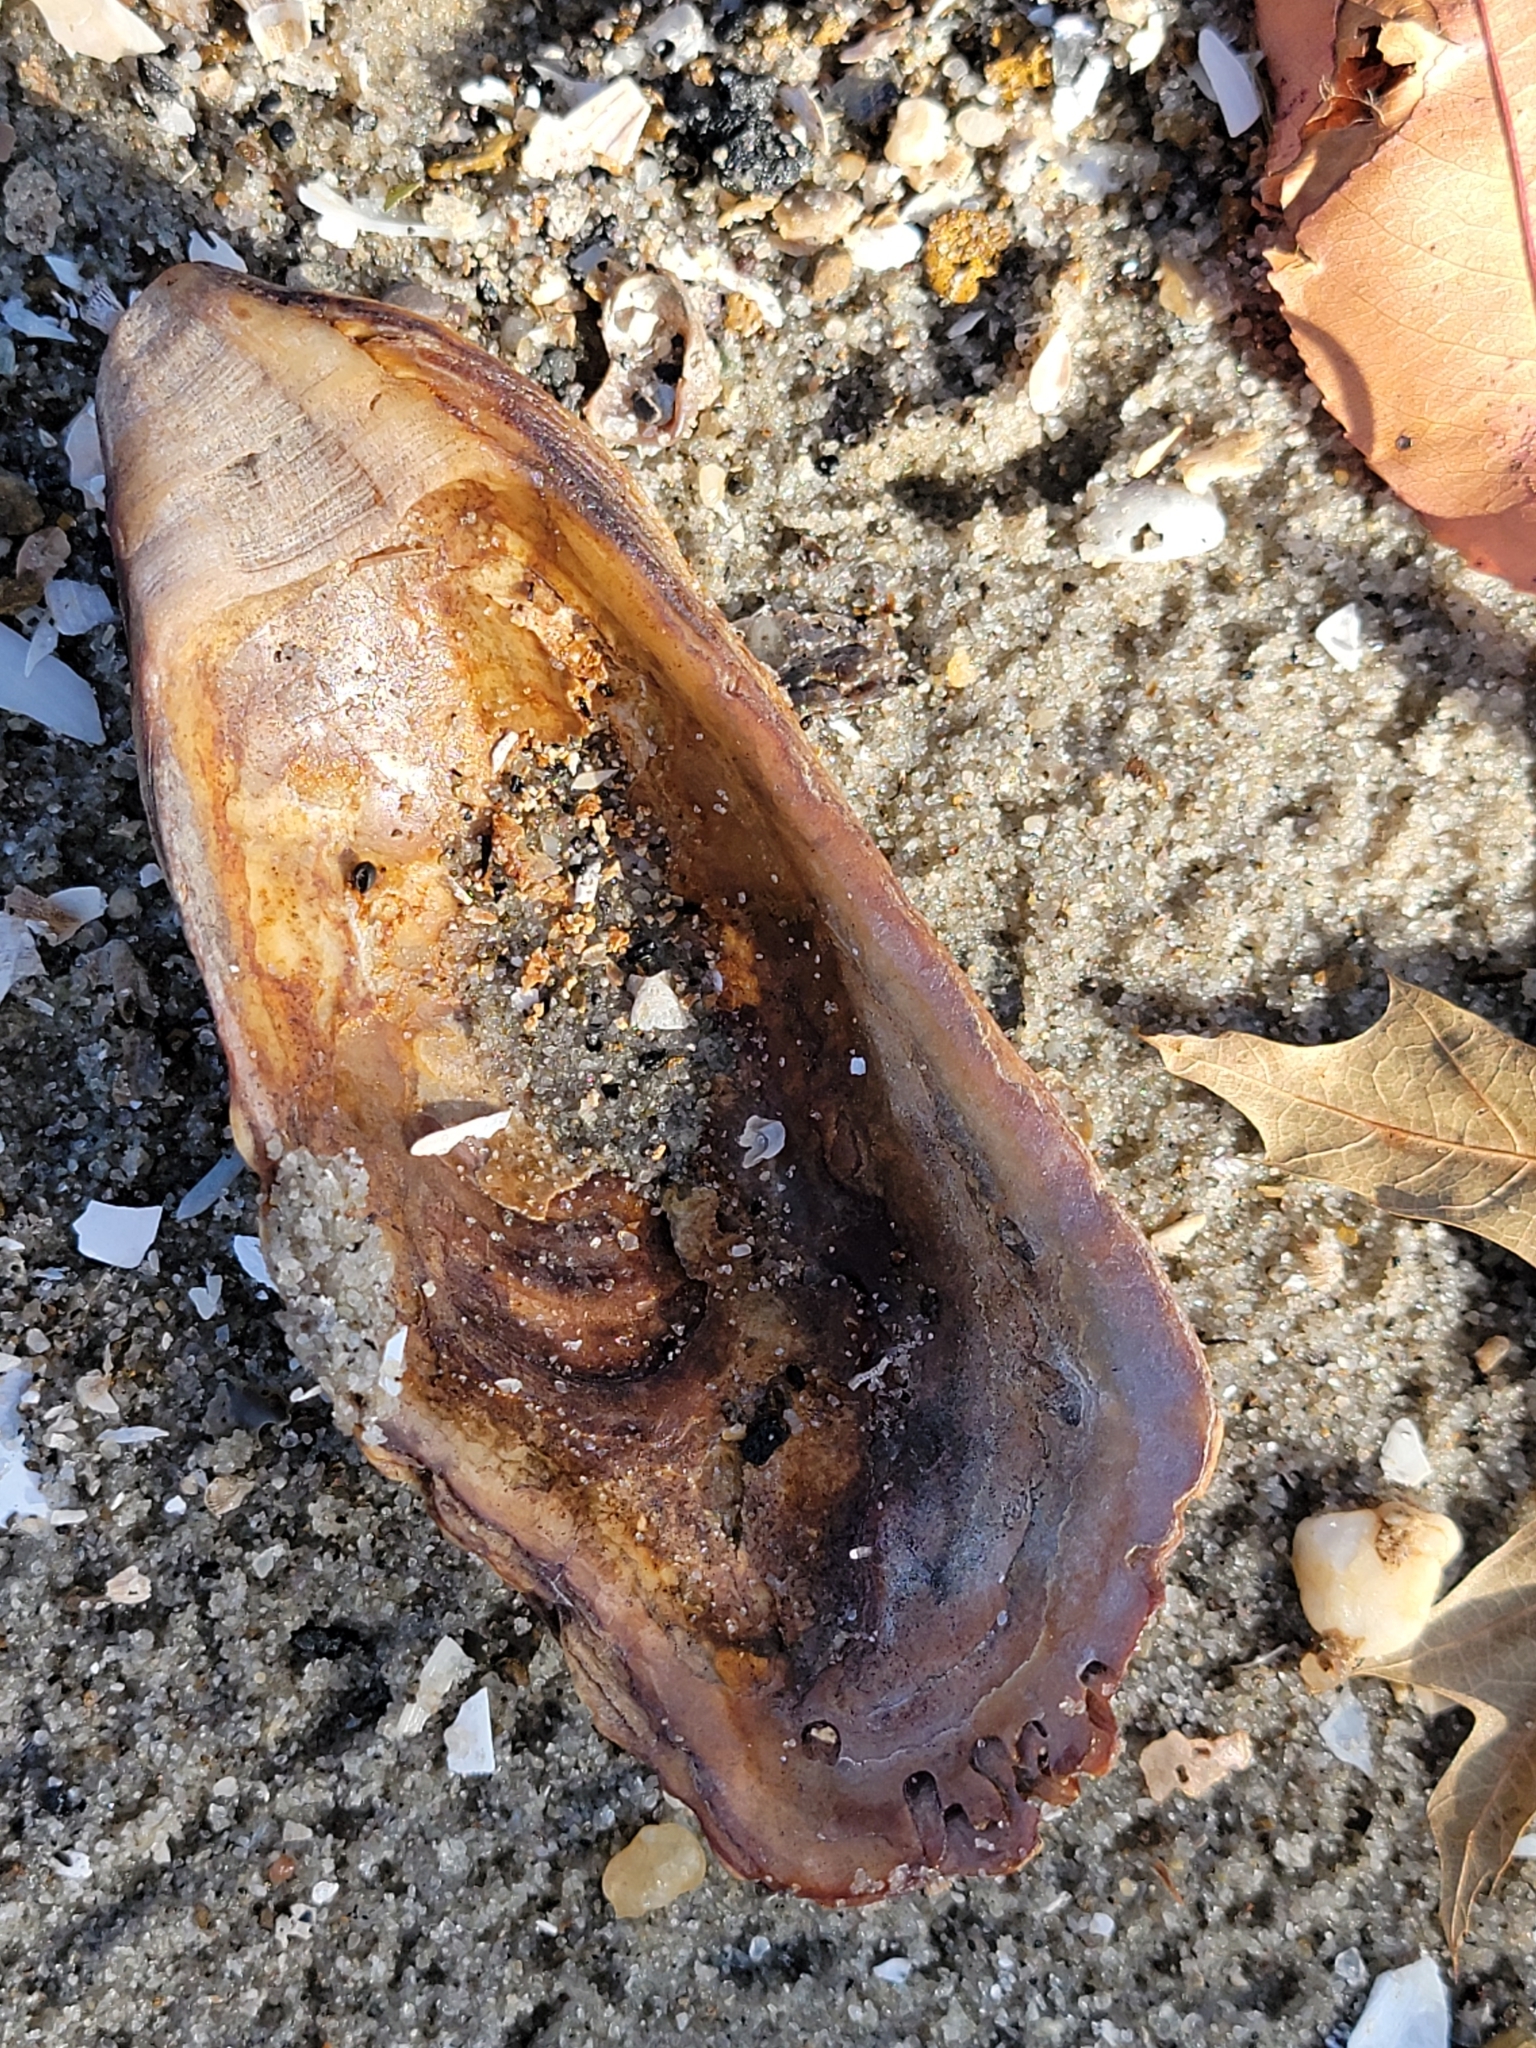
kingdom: Animalia
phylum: Mollusca
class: Bivalvia
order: Ostreida
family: Ostreidae
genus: Crassostrea
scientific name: Crassostrea virginica
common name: American oyster
